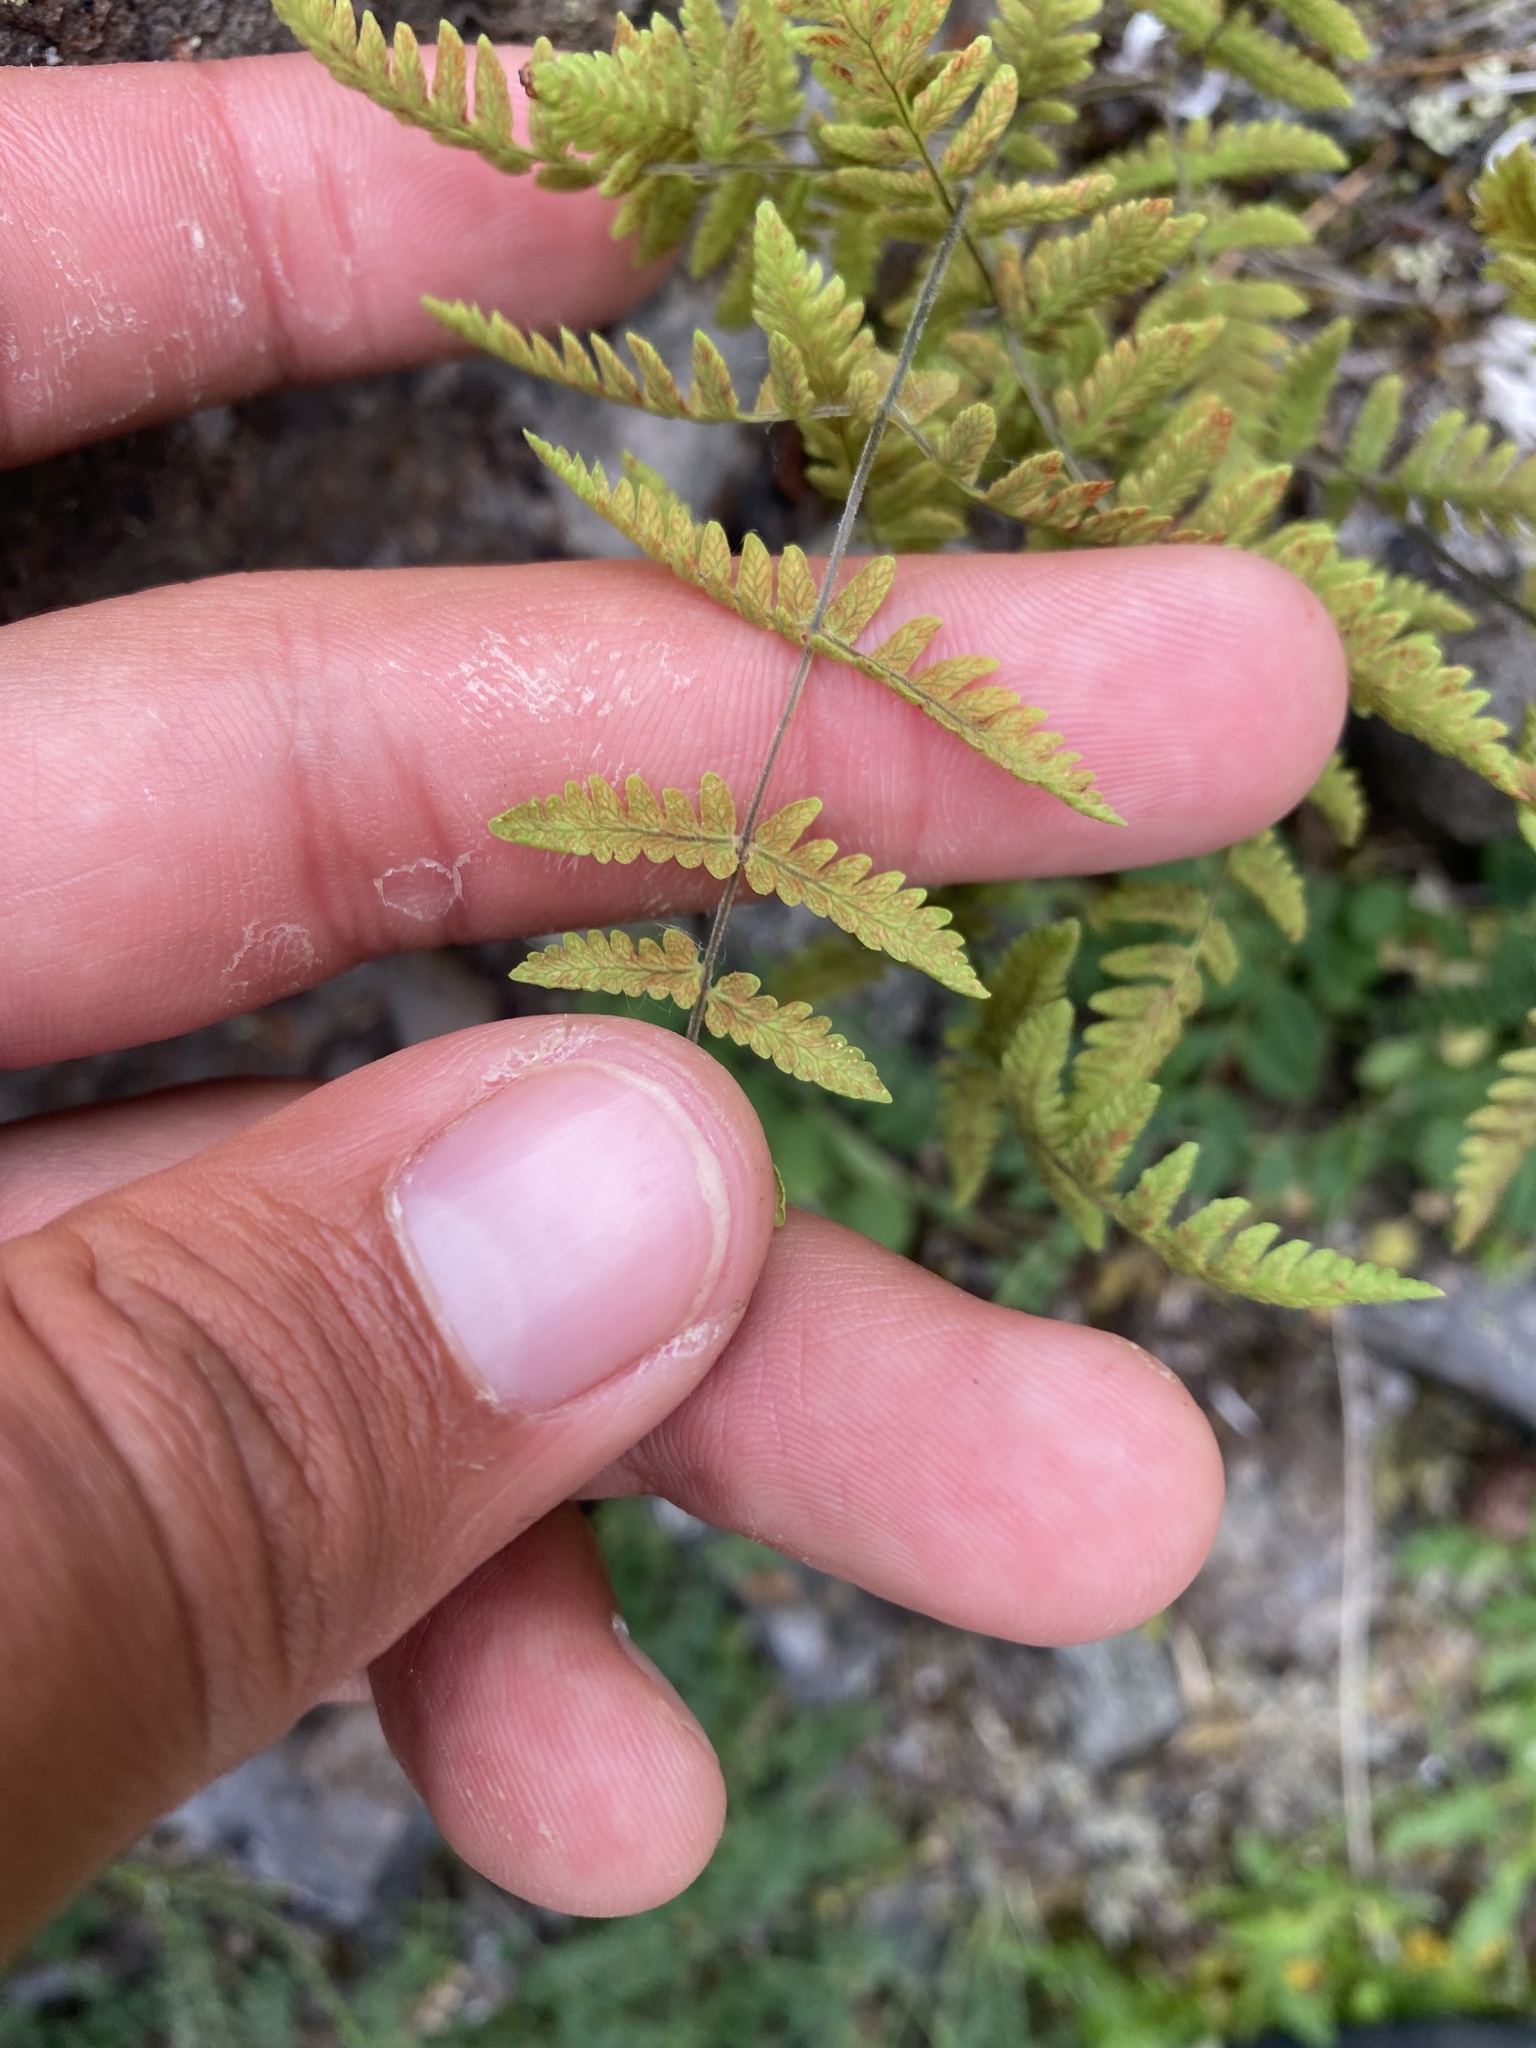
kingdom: Plantae
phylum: Tracheophyta
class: Polypodiopsida
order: Polypodiales
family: Cystopteridaceae
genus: Gymnocarpium
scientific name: Gymnocarpium jessoense
